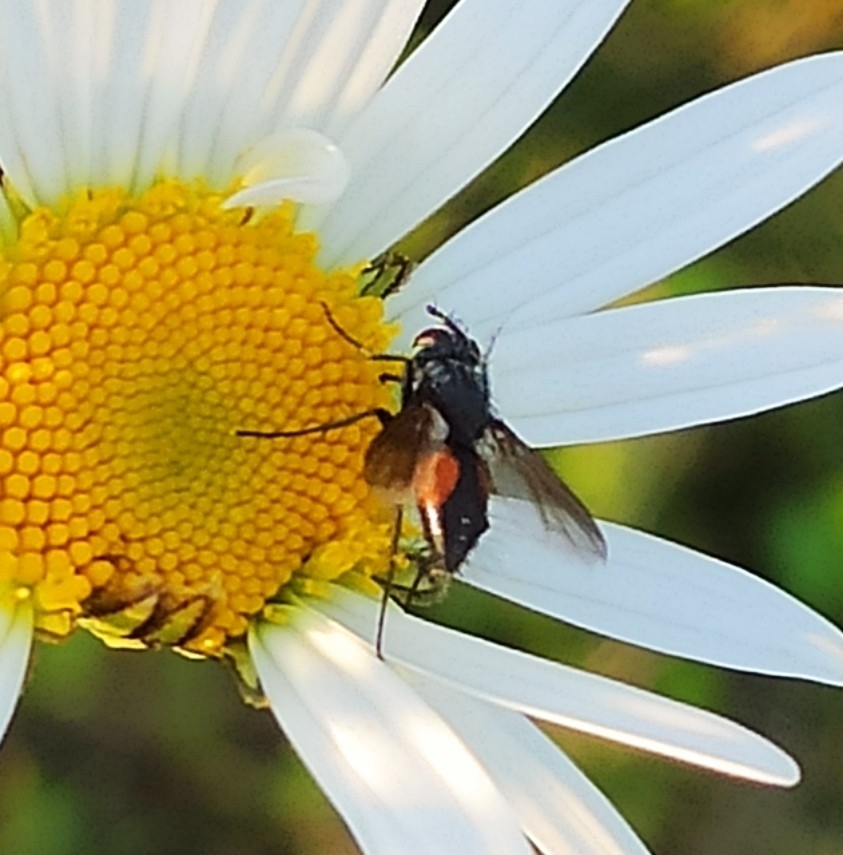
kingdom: Animalia
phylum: Arthropoda
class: Insecta
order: Diptera
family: Tachinidae
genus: Eriothrix
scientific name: Eriothrix rufomaculatus
